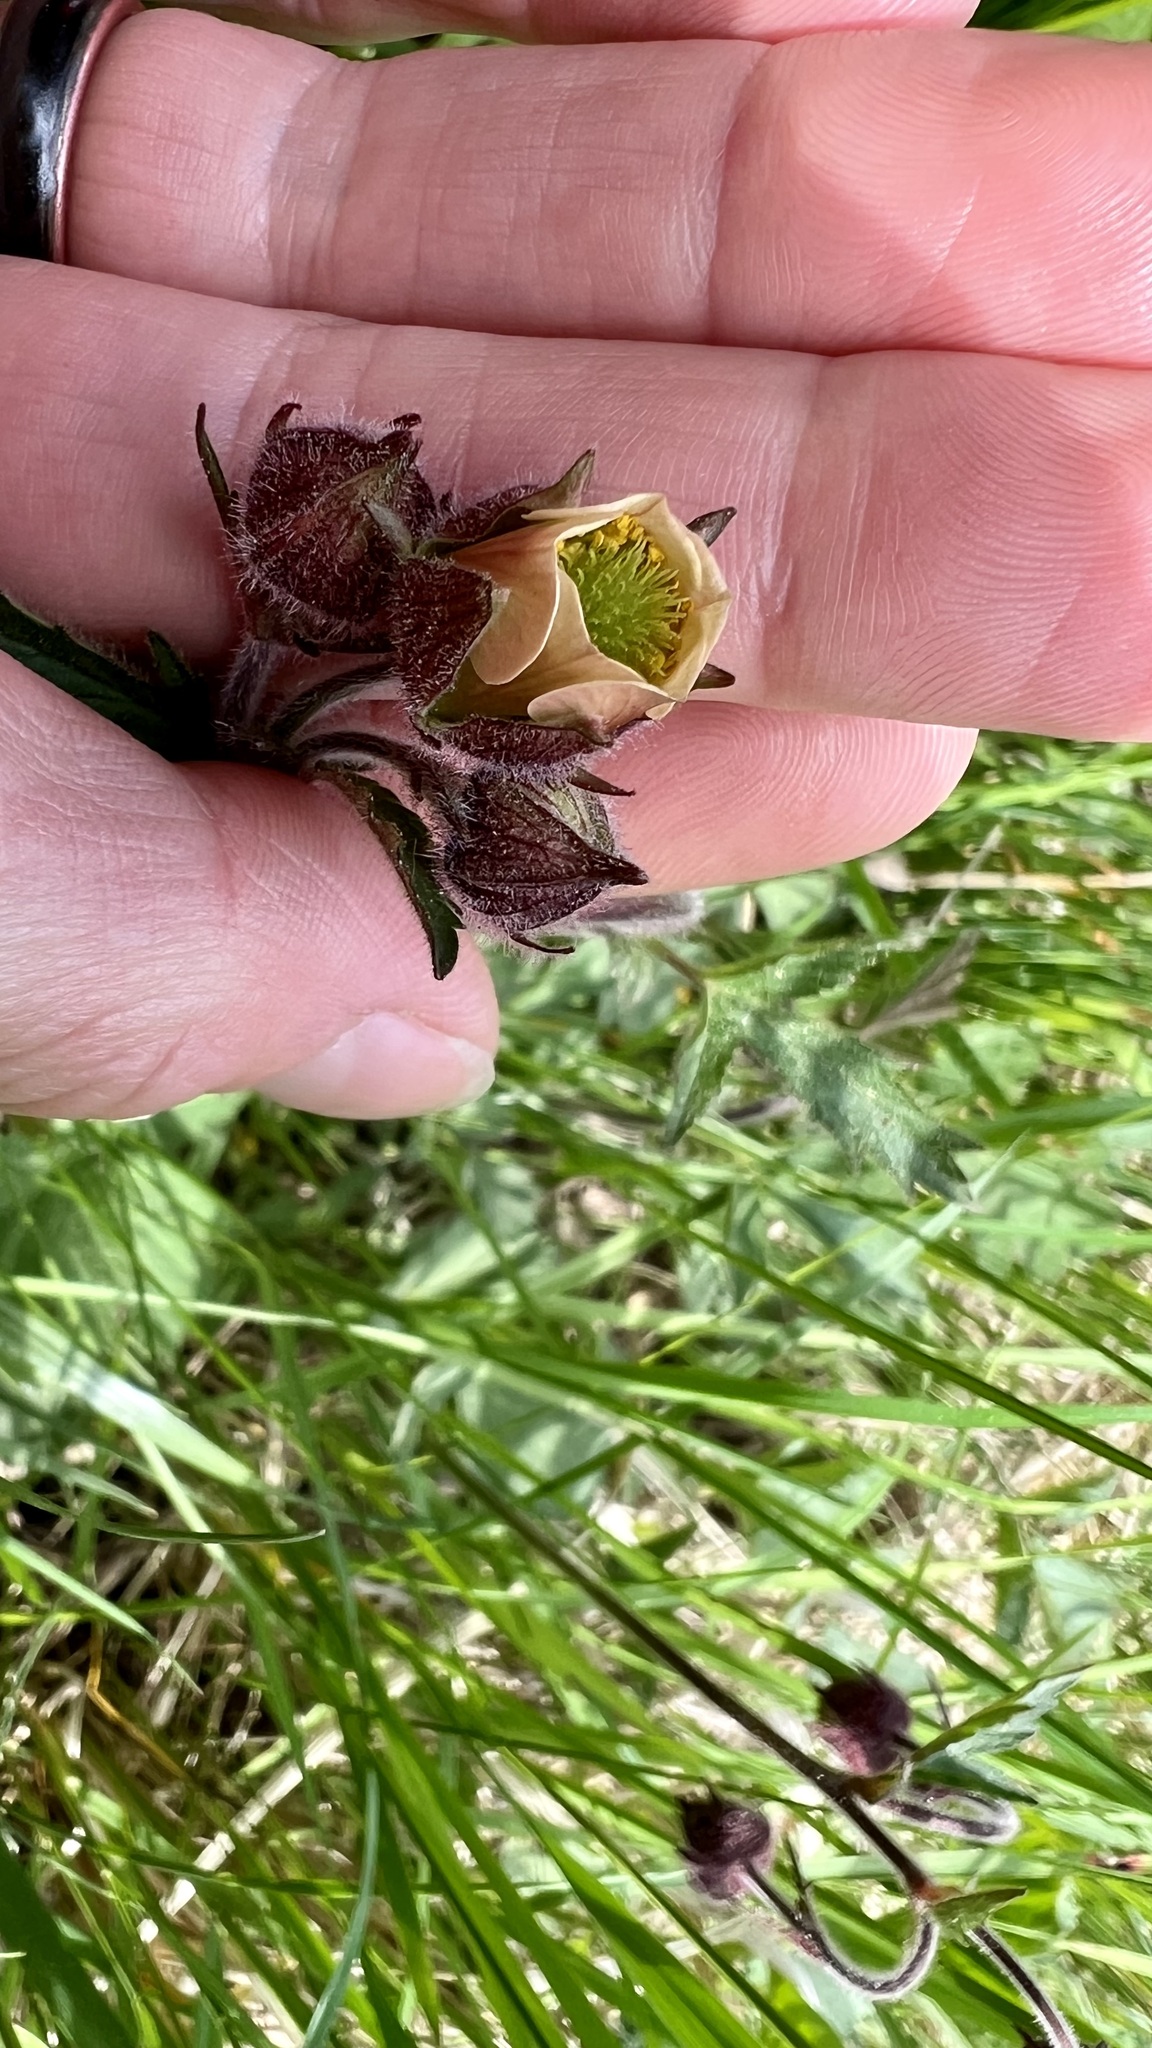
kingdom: Plantae
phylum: Tracheophyta
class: Magnoliopsida
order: Rosales
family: Rosaceae
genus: Geum
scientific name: Geum rivale
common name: Water avens
